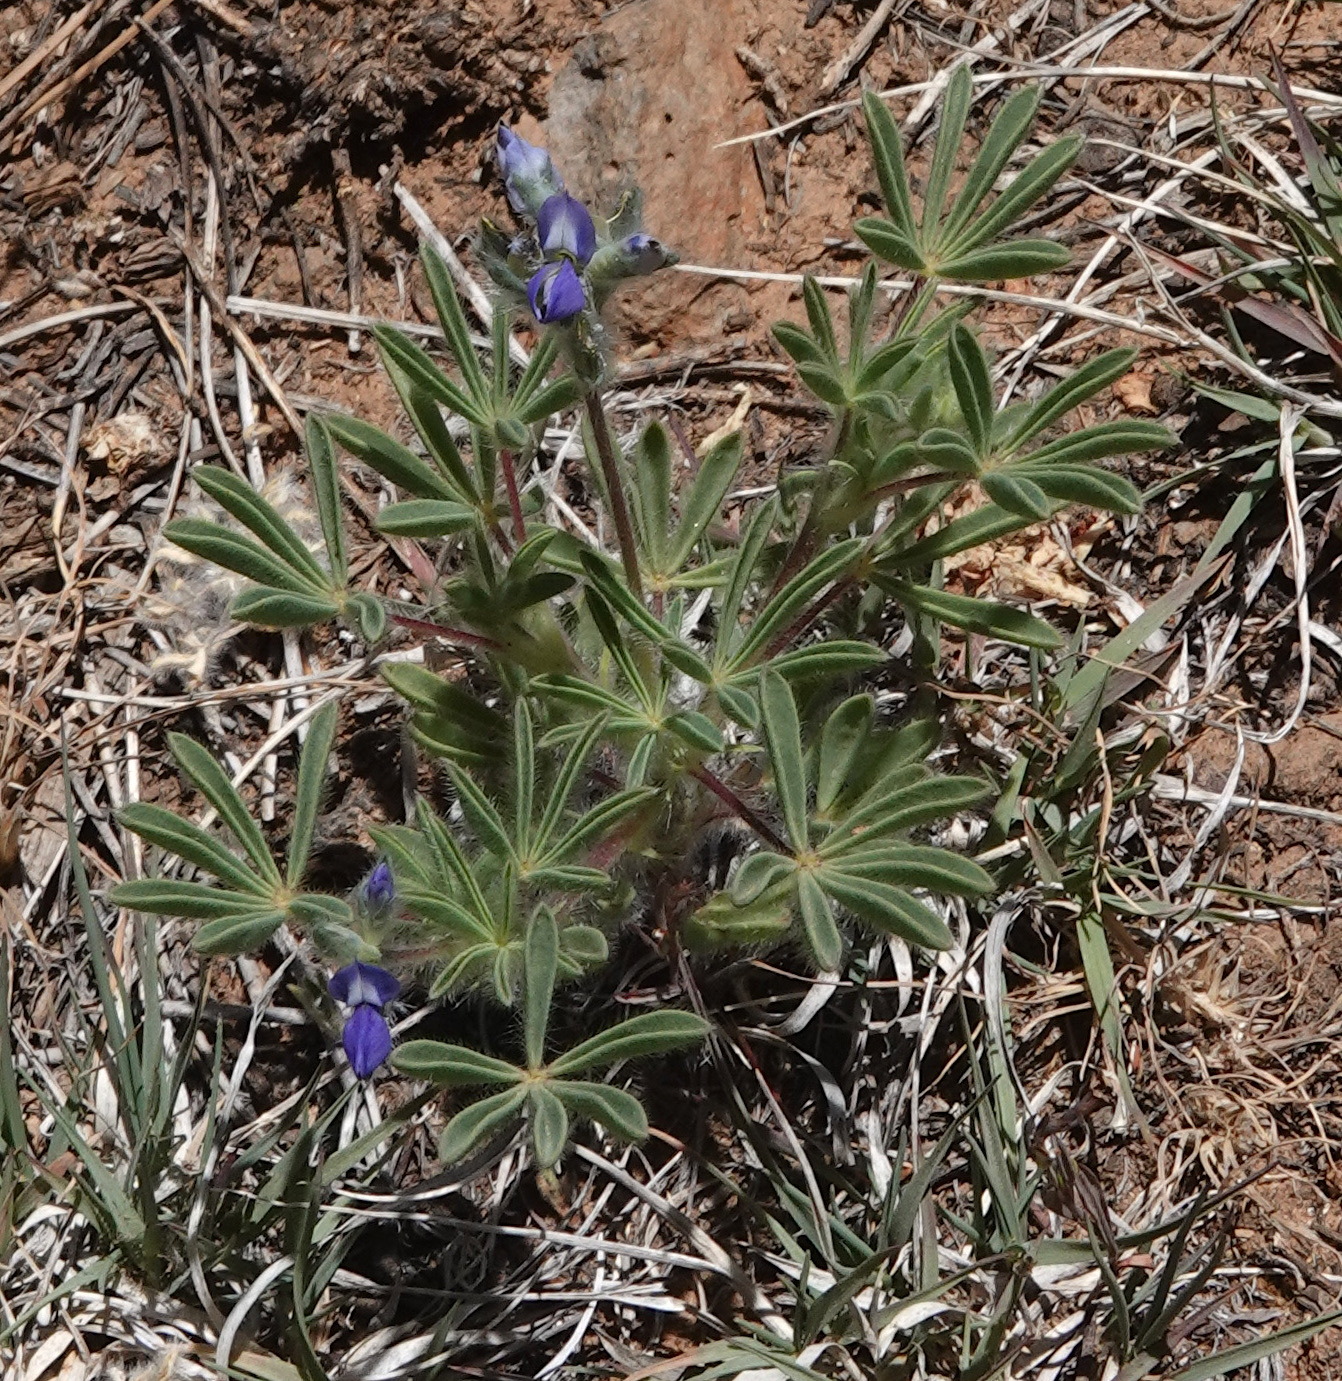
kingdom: Plantae
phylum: Tracheophyta
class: Magnoliopsida
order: Fabales
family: Fabaceae
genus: Lupinus
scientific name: Lupinus brevicaulis
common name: Sand lupine
